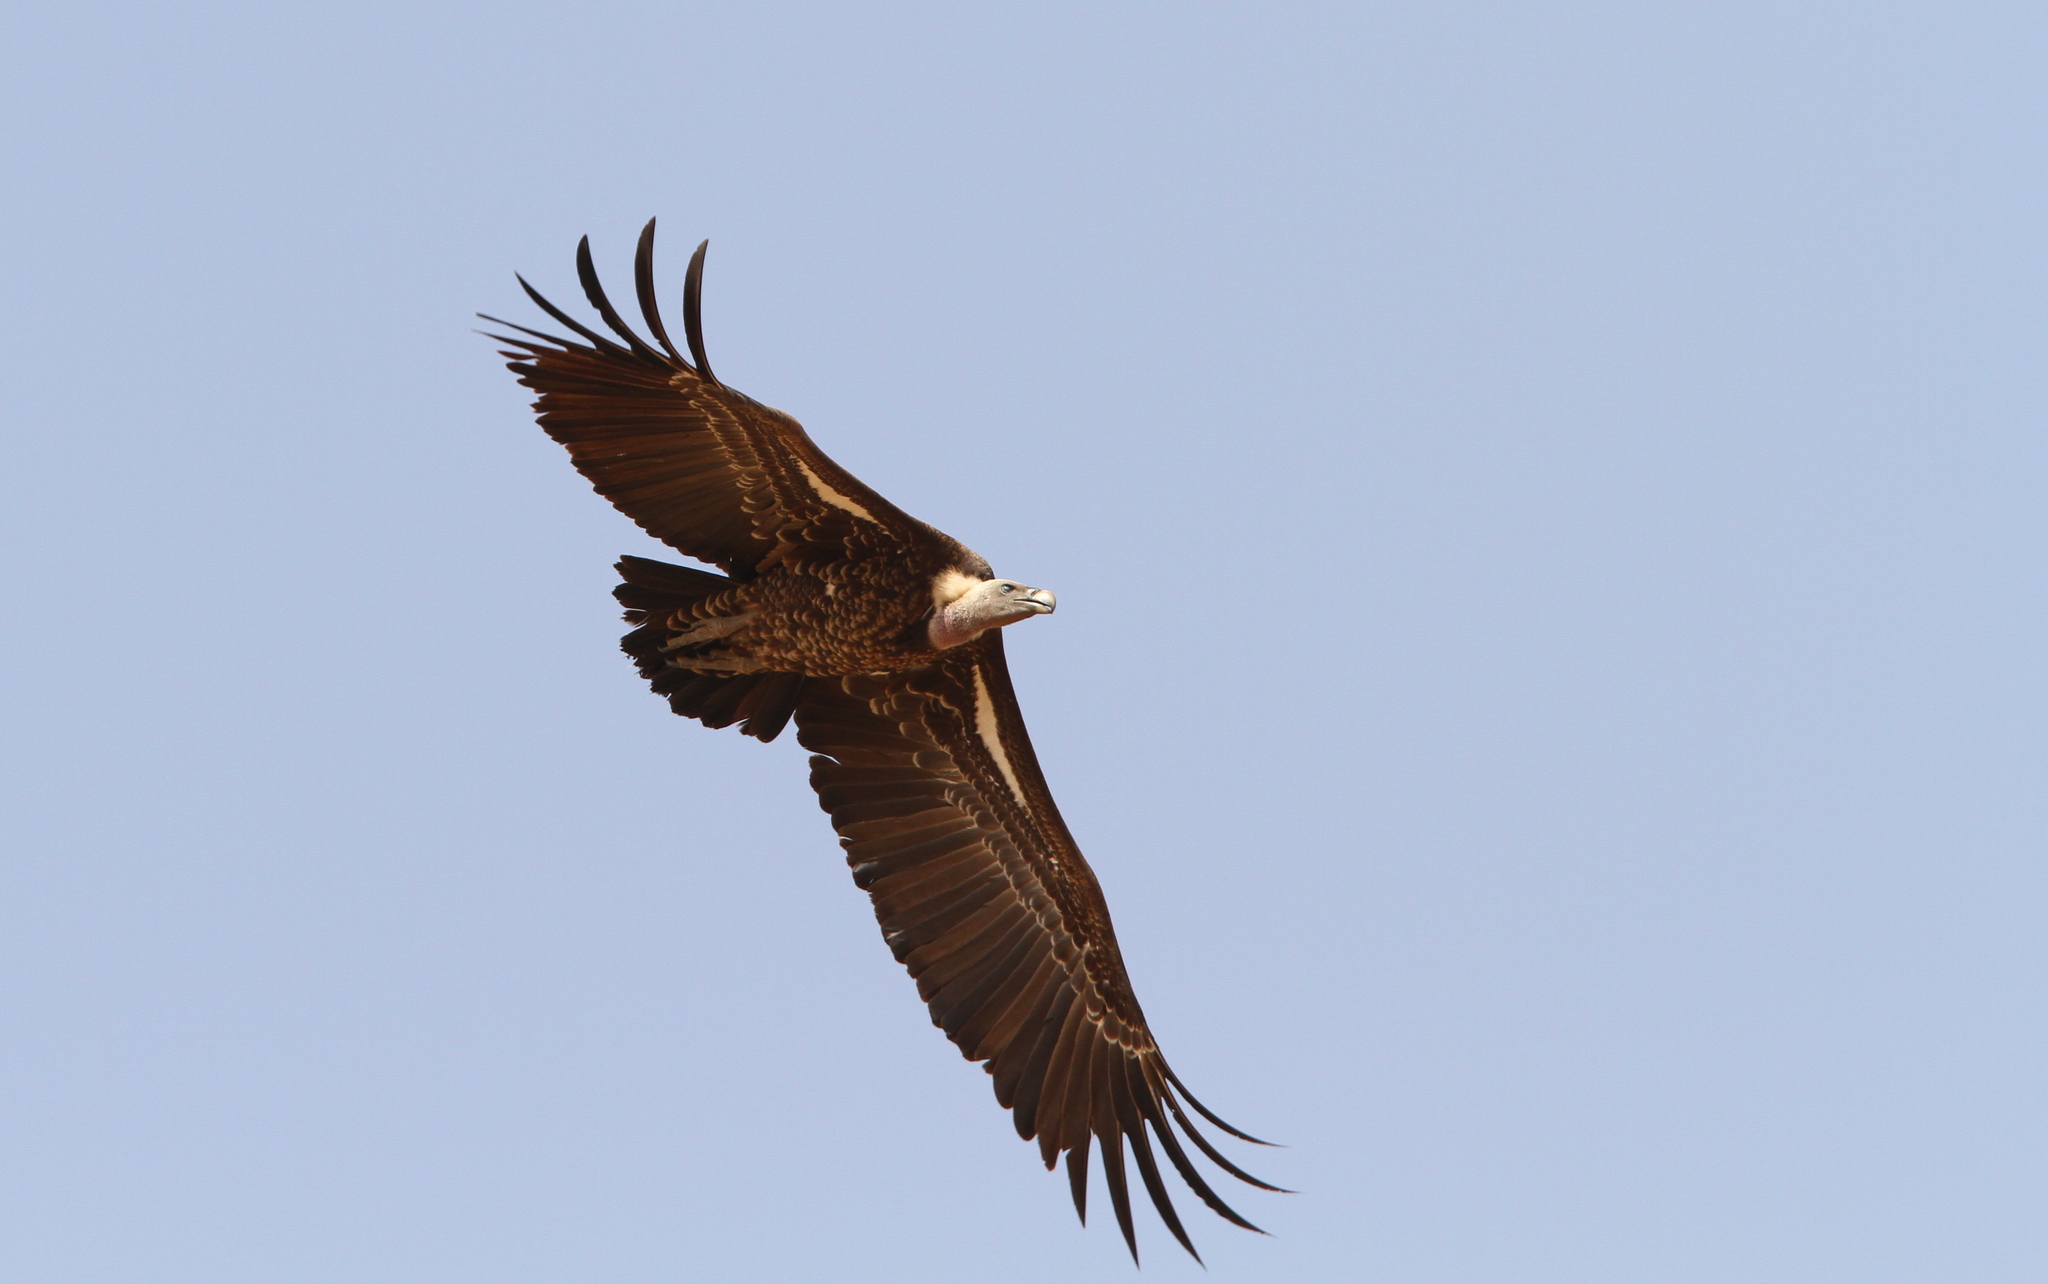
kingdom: Animalia
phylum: Chordata
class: Aves
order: Accipitriformes
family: Accipitridae
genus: Gyps
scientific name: Gyps rueppellii
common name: Rüppell's vulture
